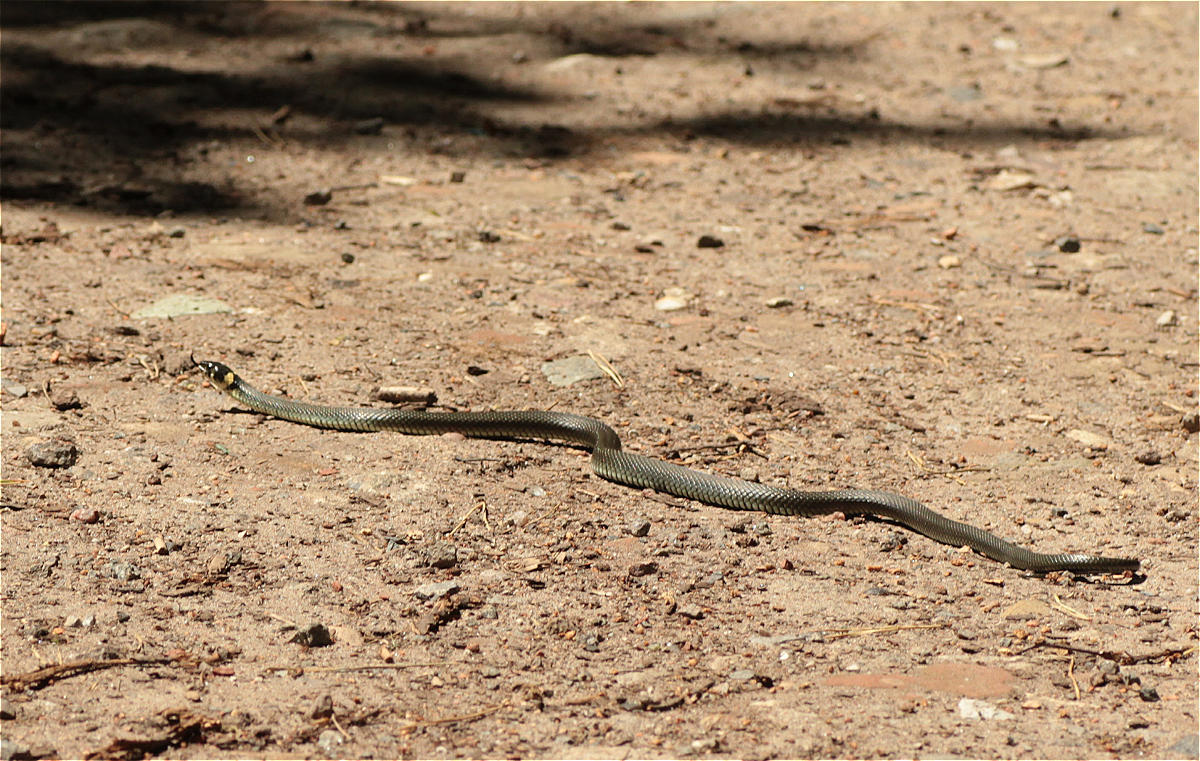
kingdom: Animalia
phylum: Chordata
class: Squamata
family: Colubridae
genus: Natrix
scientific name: Natrix natrix
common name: Grass snake
